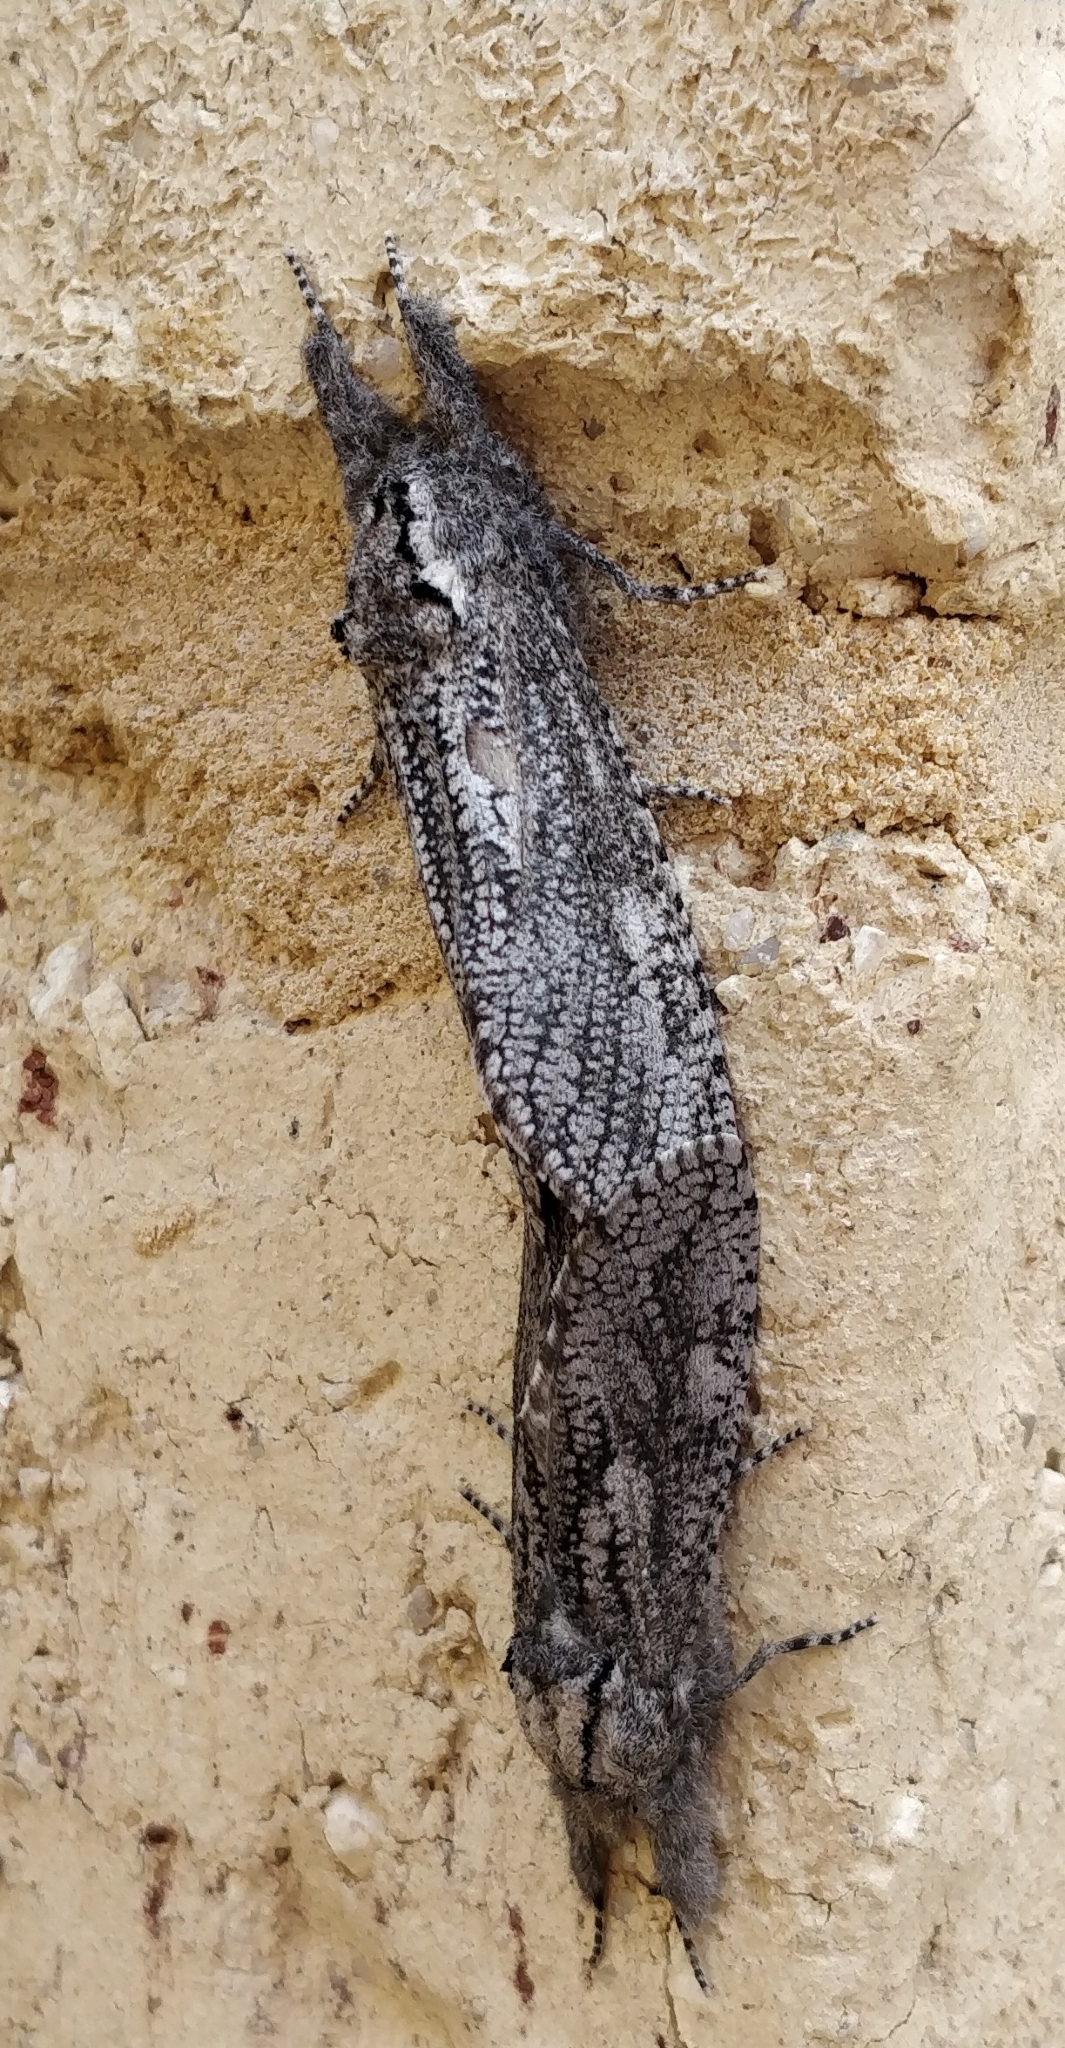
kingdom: Animalia
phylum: Arthropoda
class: Insecta
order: Lepidoptera
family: Cossidae
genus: Endoxyla
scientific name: Endoxyla coscinophanes
